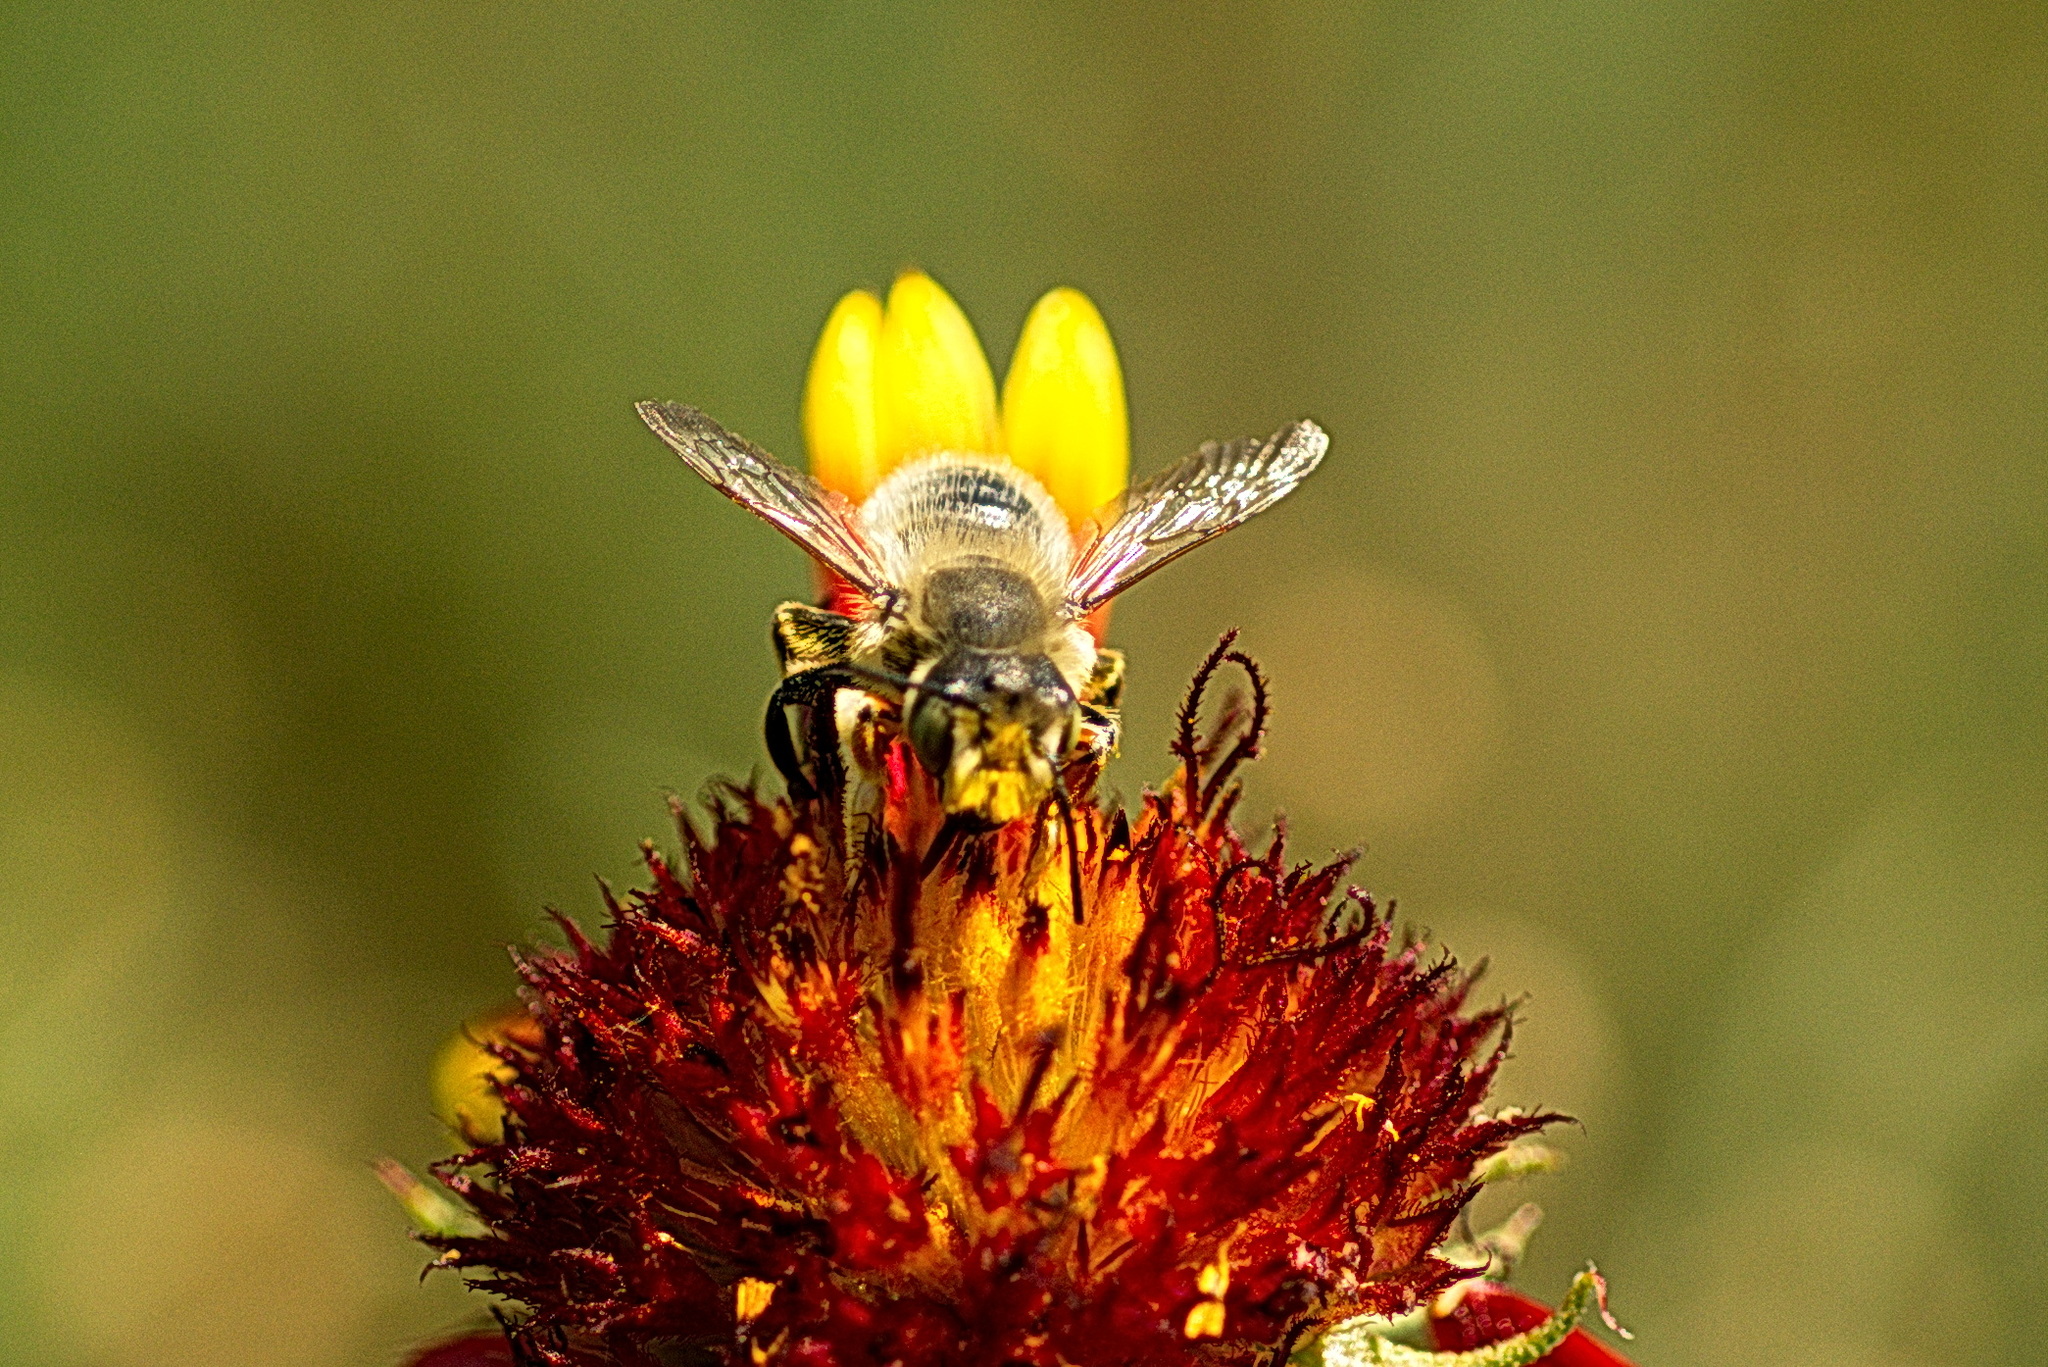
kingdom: Animalia
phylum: Arthropoda
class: Insecta
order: Hymenoptera
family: Megachilidae
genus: Xanthosarus
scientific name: Xanthosarus
